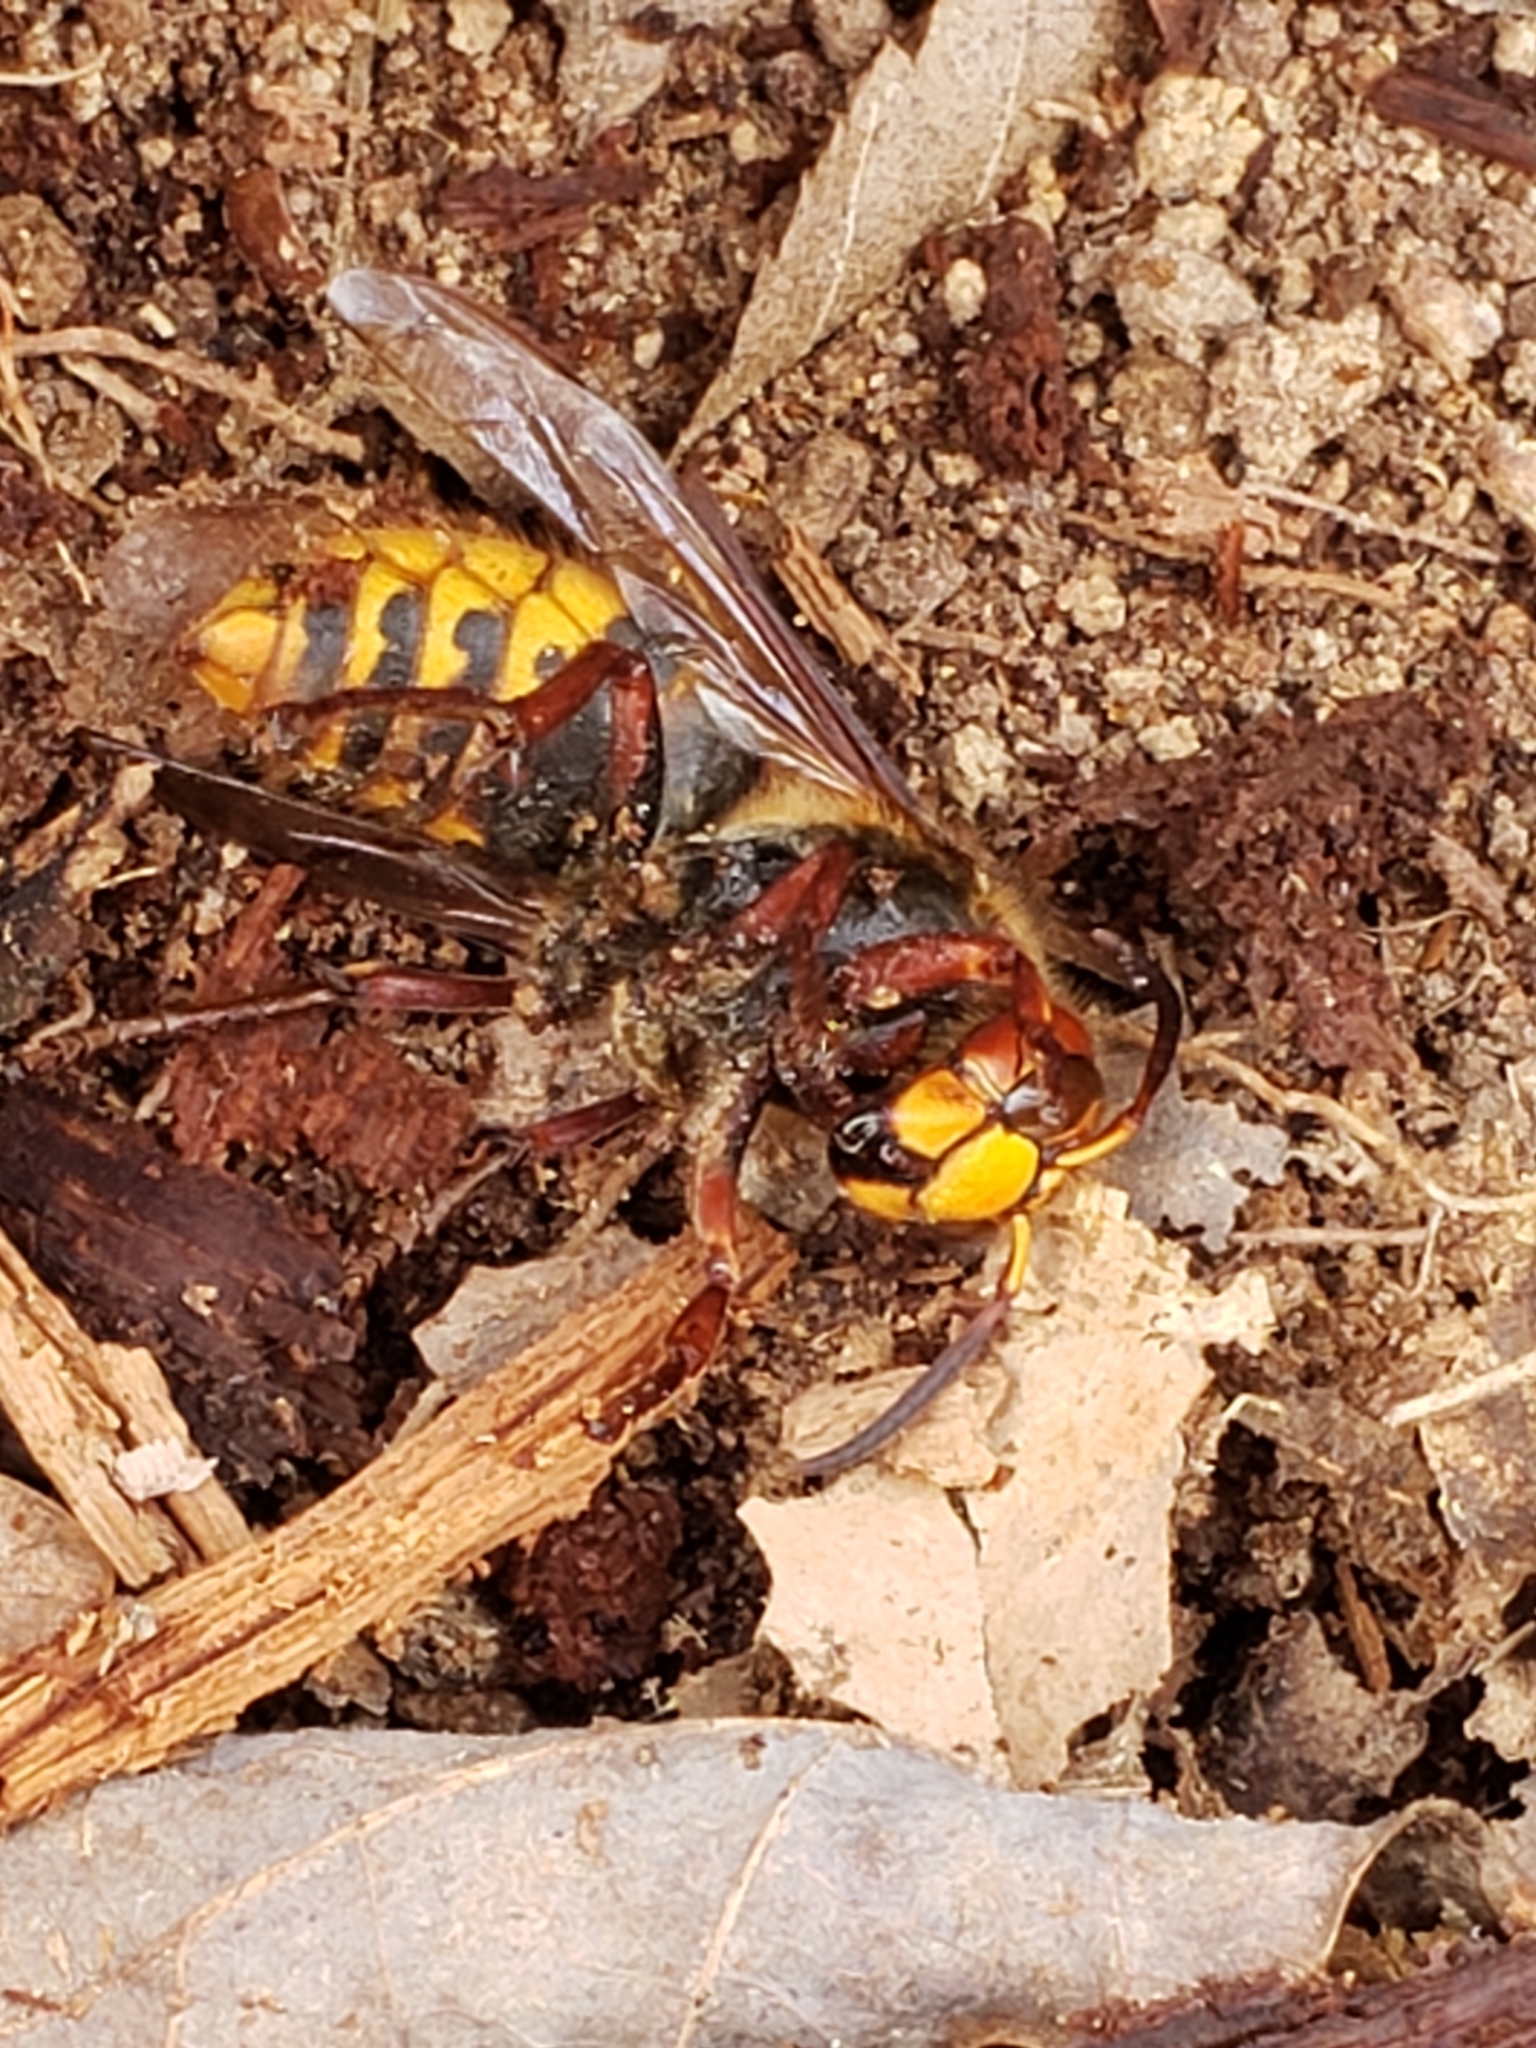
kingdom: Animalia
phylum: Arthropoda
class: Insecta
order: Hymenoptera
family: Vespidae
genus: Vespa
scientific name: Vespa crabro
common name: Hornet
